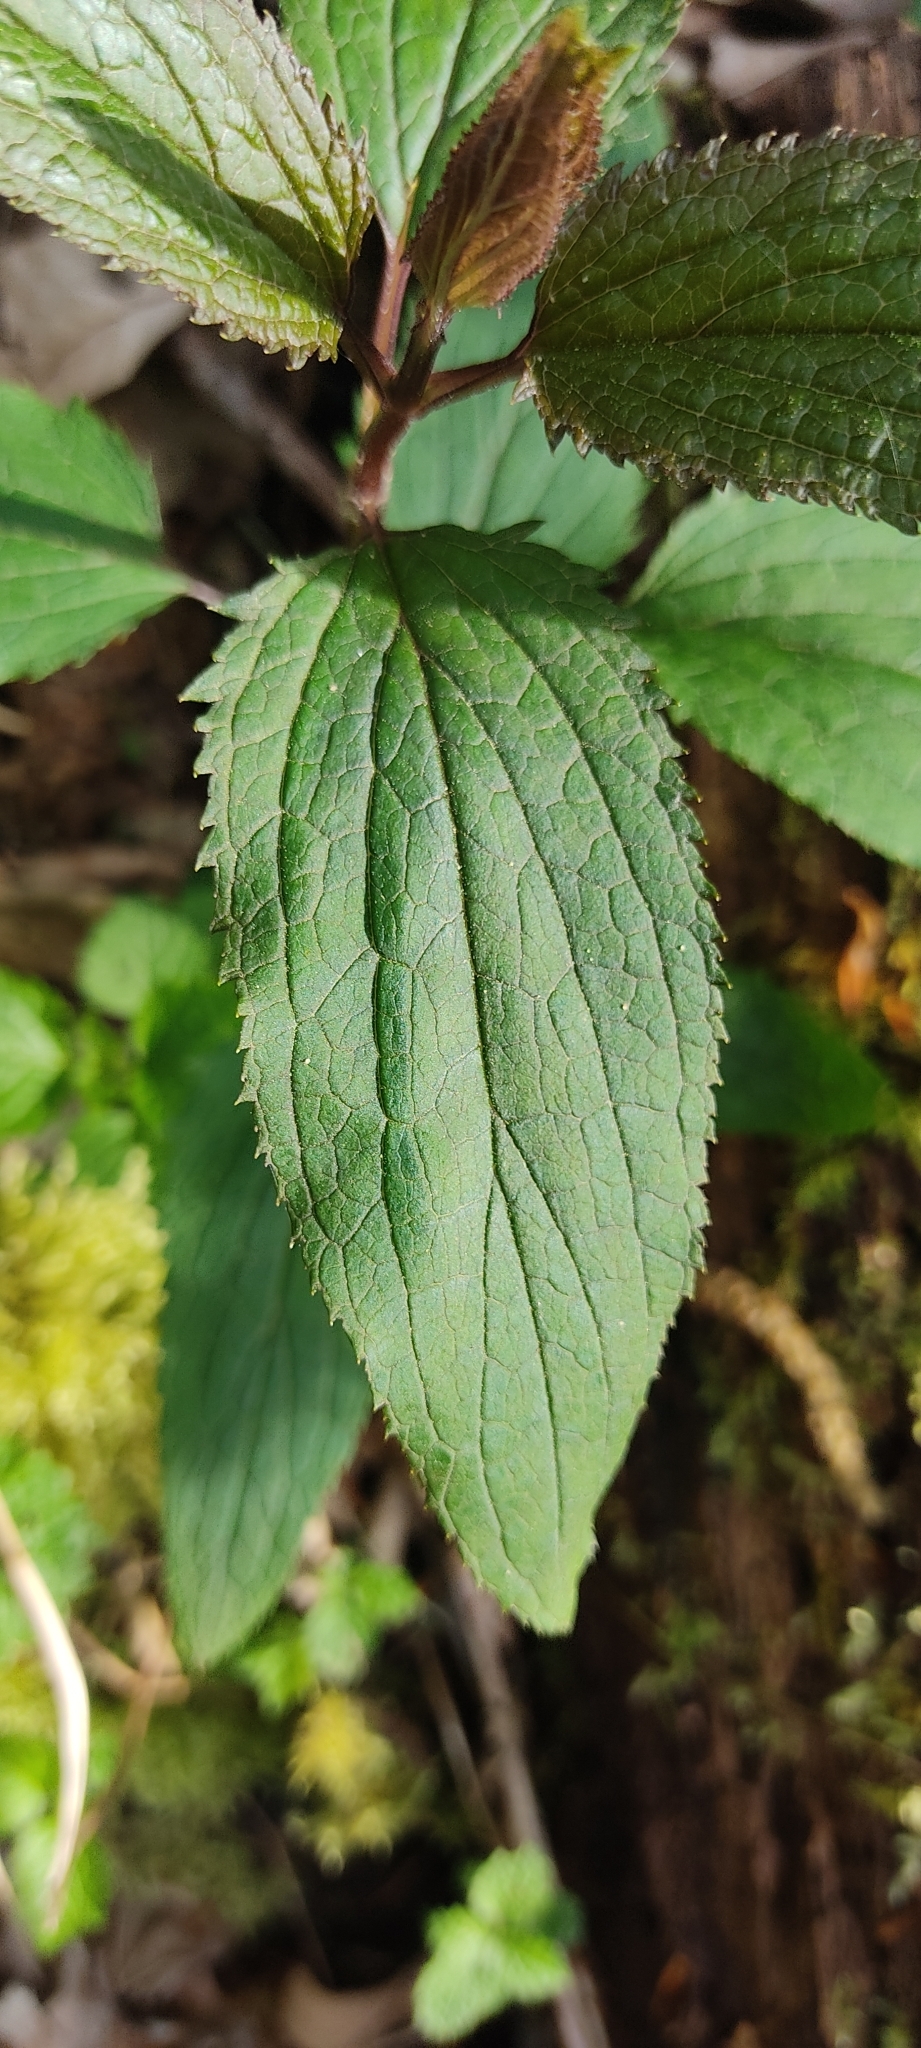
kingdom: Plantae
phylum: Tracheophyta
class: Magnoliopsida
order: Lamiales
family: Scrophulariaceae
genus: Scrophularia
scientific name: Scrophularia nodosa
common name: Common figwort
